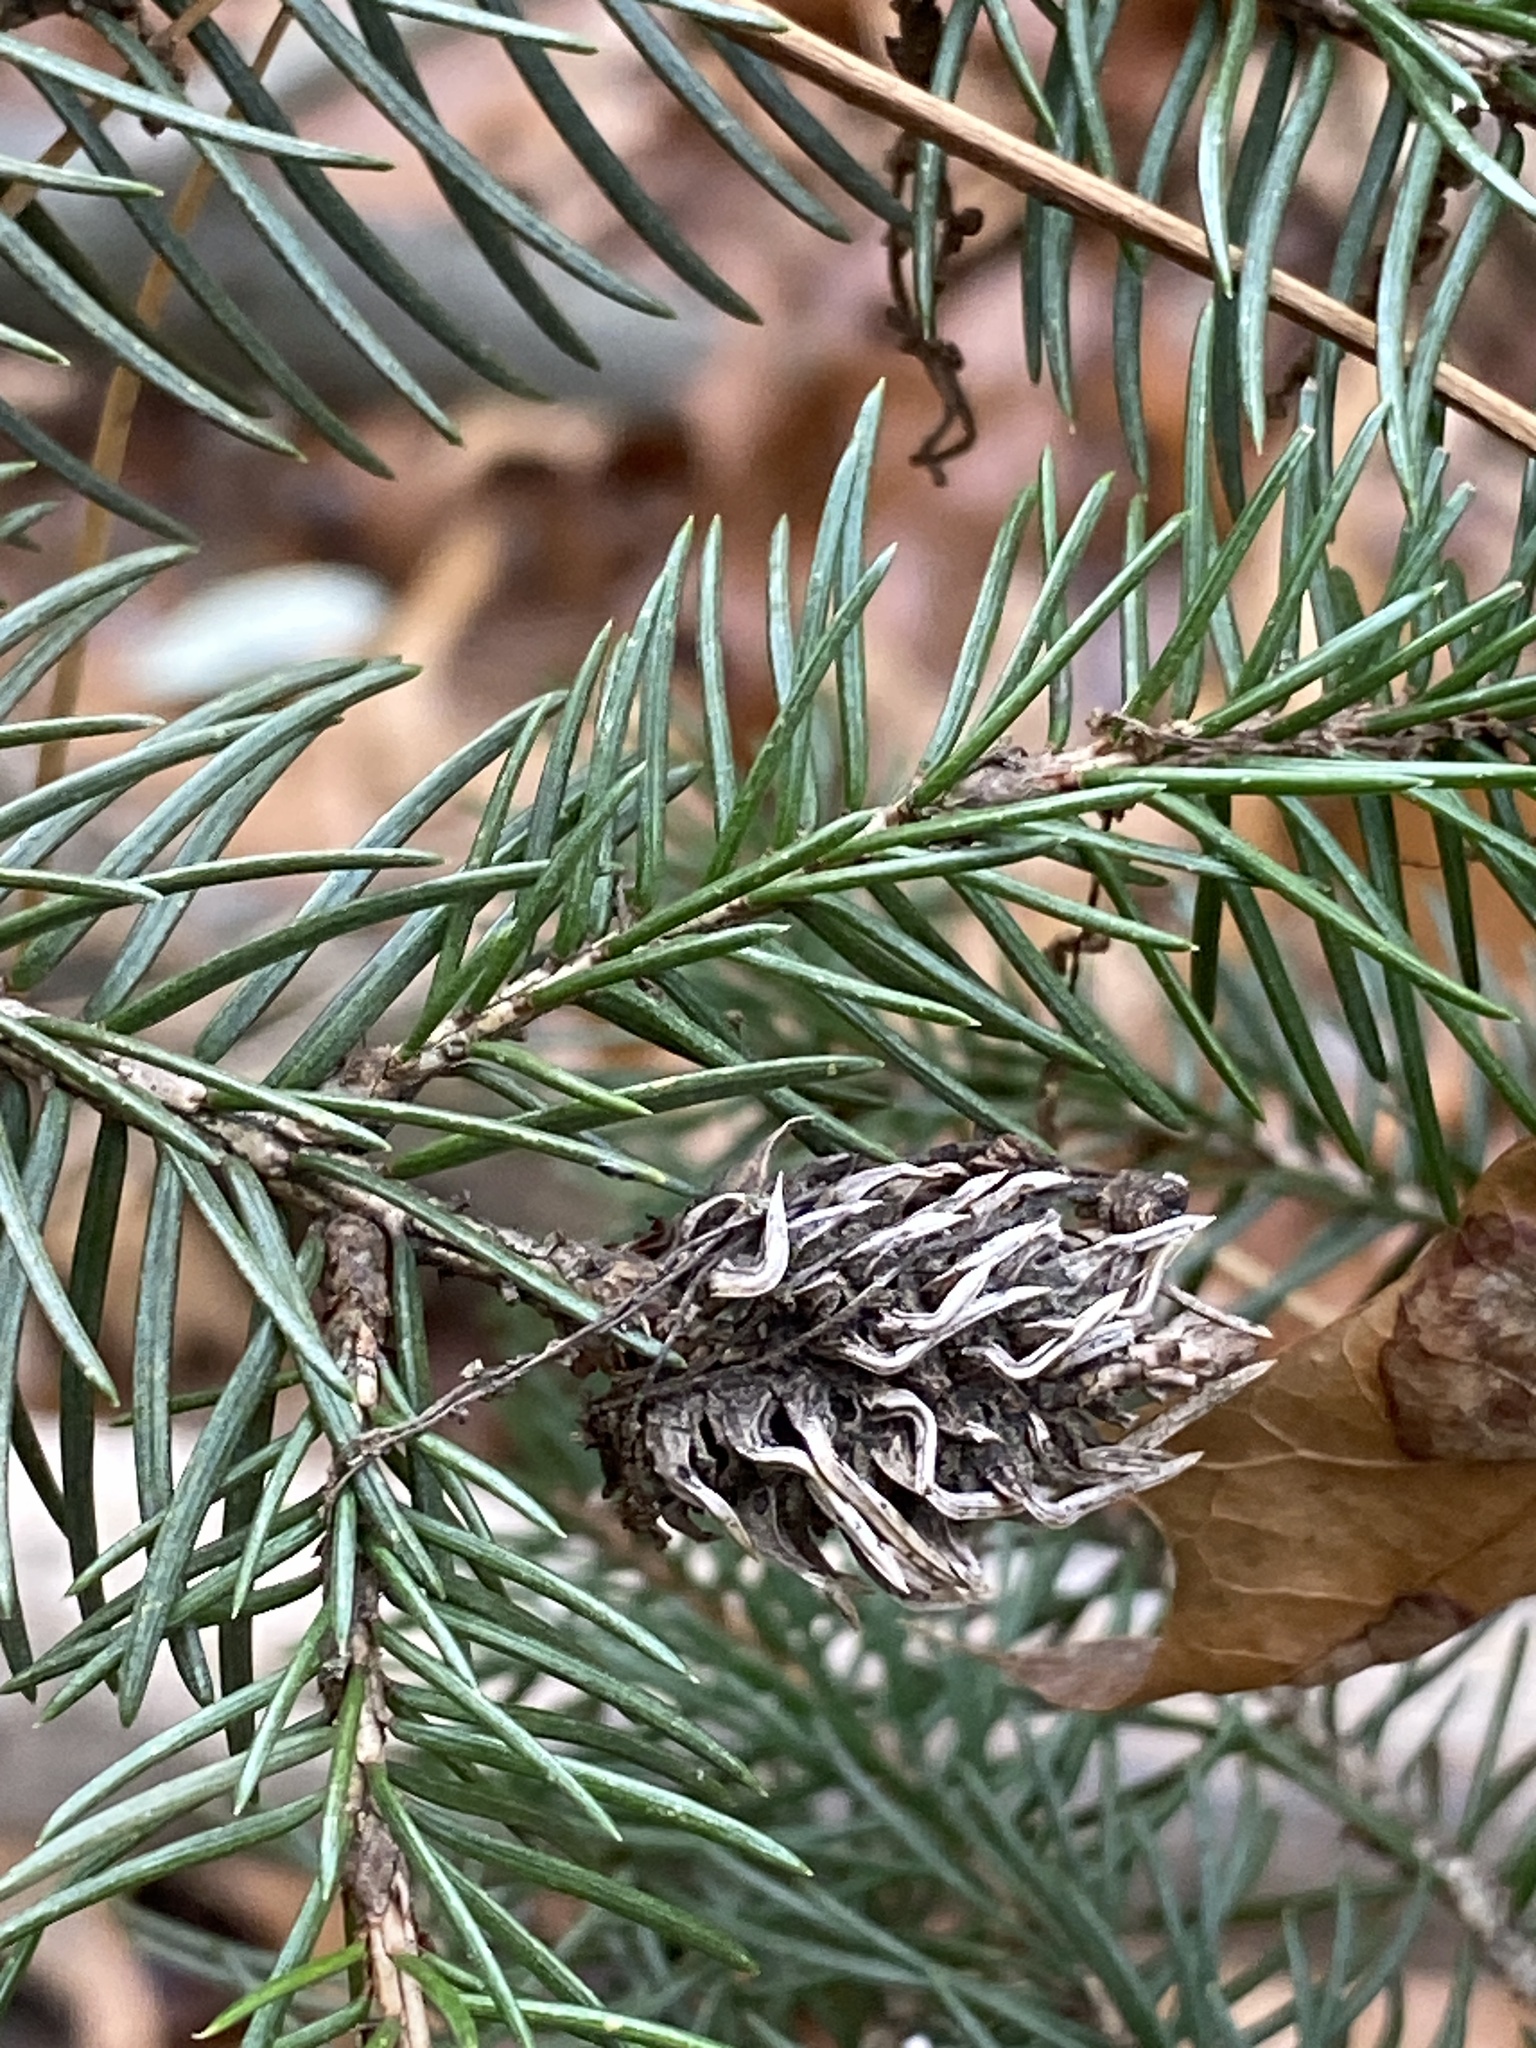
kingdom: Animalia
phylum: Arthropoda
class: Insecta
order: Hemiptera
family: Adelgidae
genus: Adelges
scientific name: Adelges abietis
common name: Eastern spruce gall adelgid
